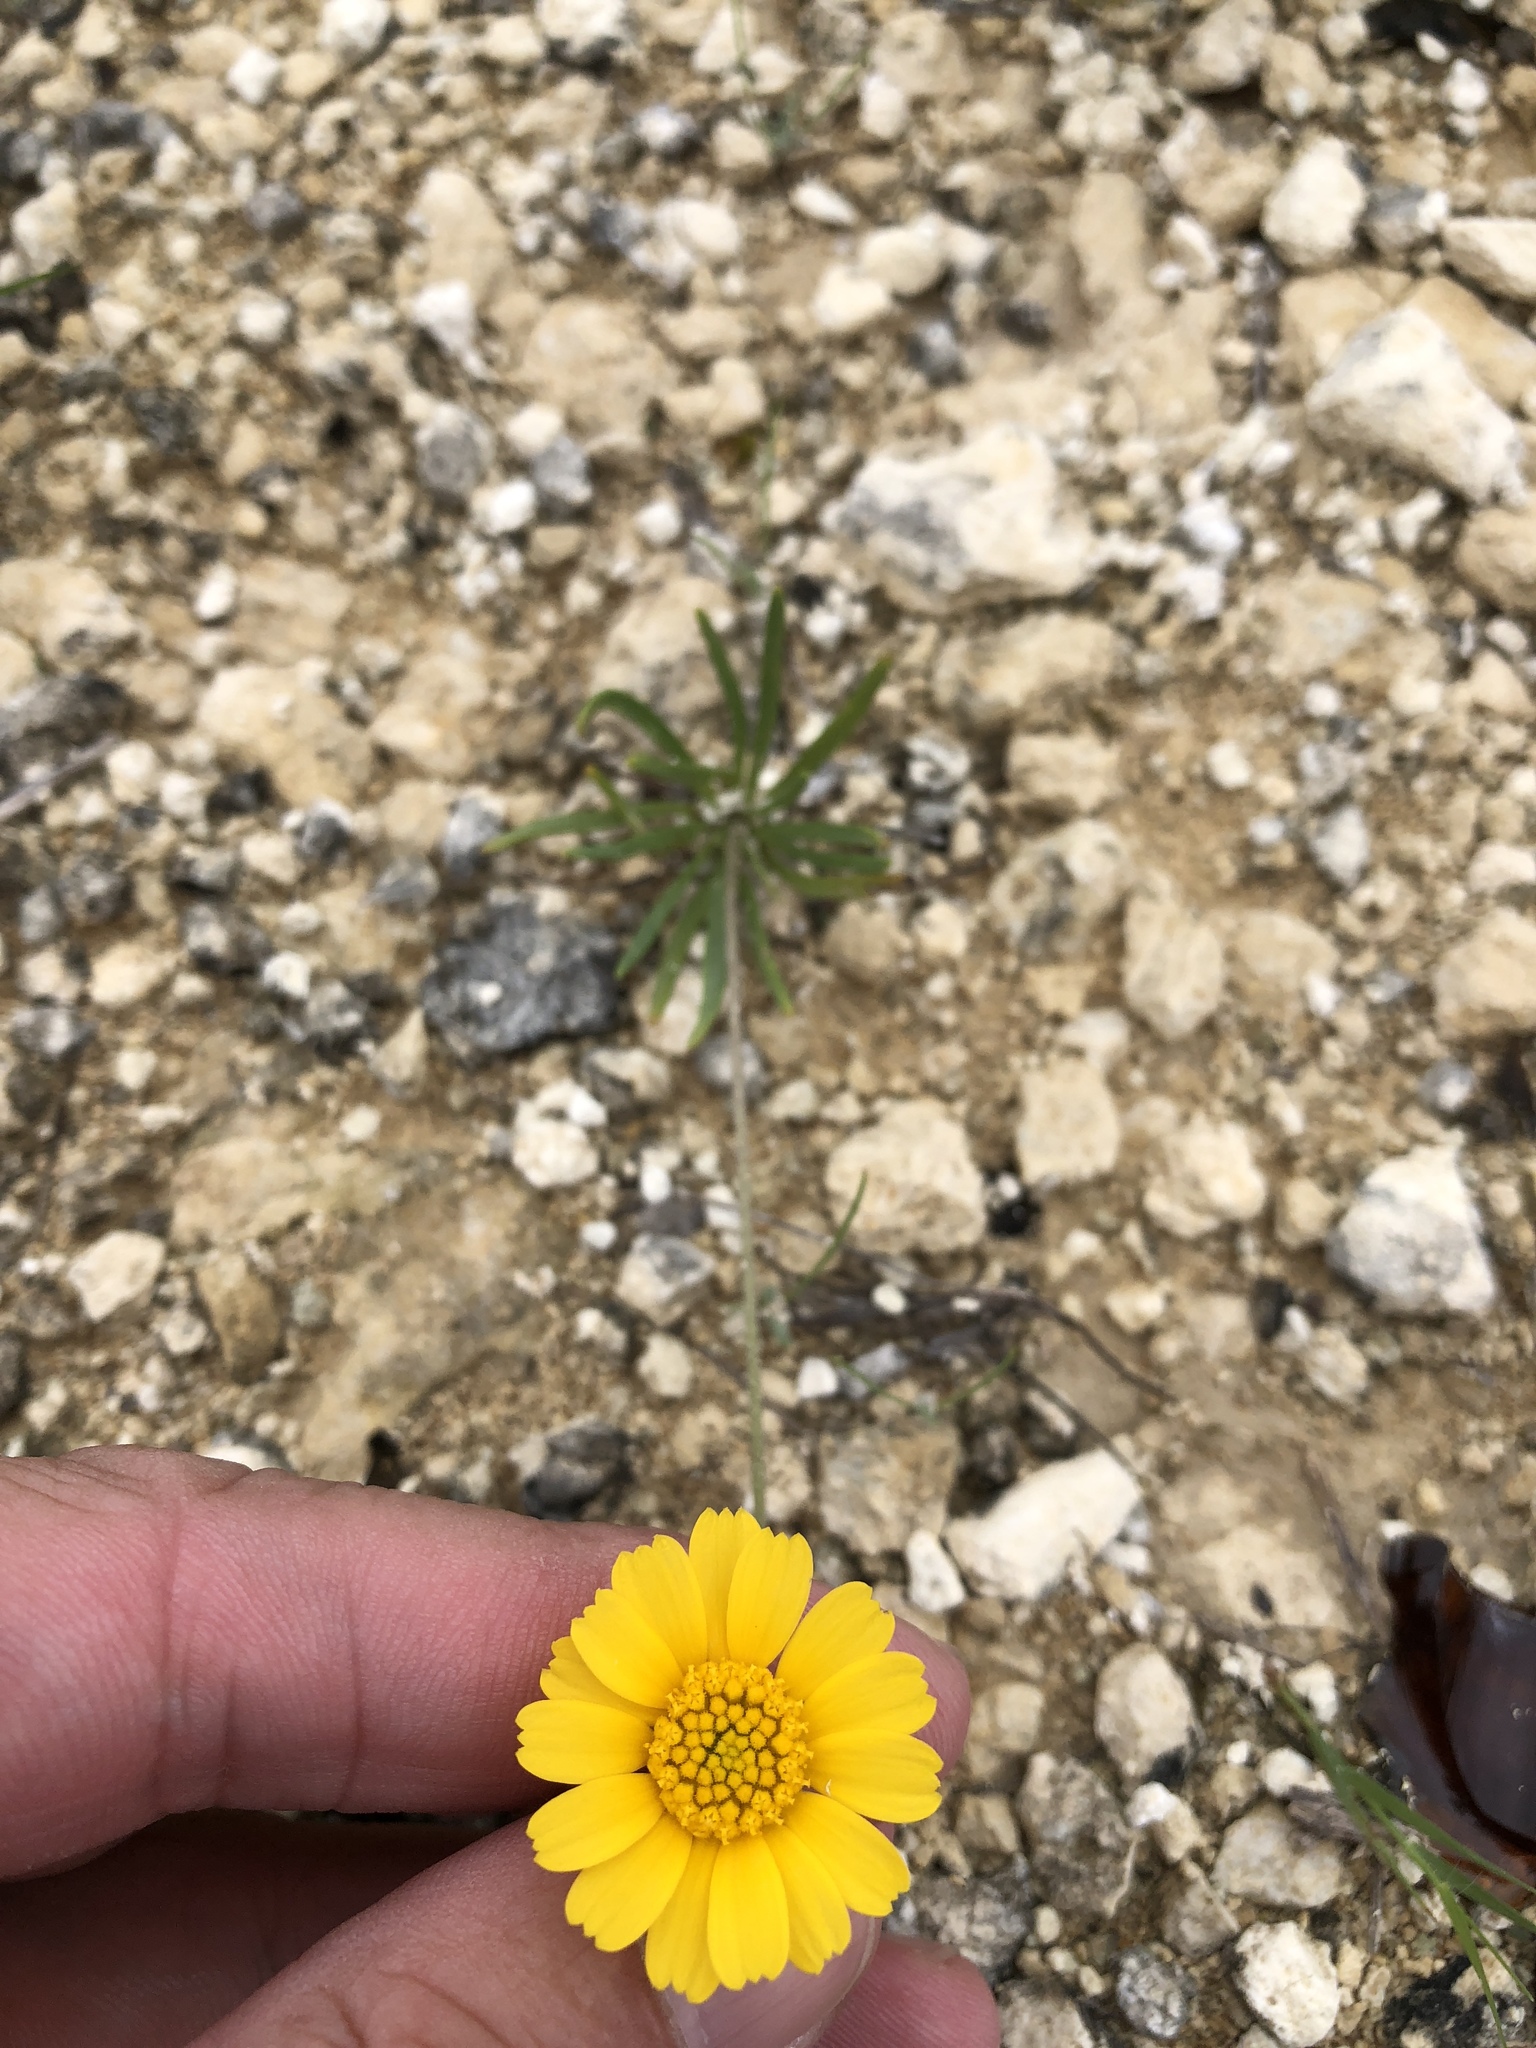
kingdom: Plantae
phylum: Tracheophyta
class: Magnoliopsida
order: Asterales
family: Asteraceae
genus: Tetraneuris
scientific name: Tetraneuris scaposa
